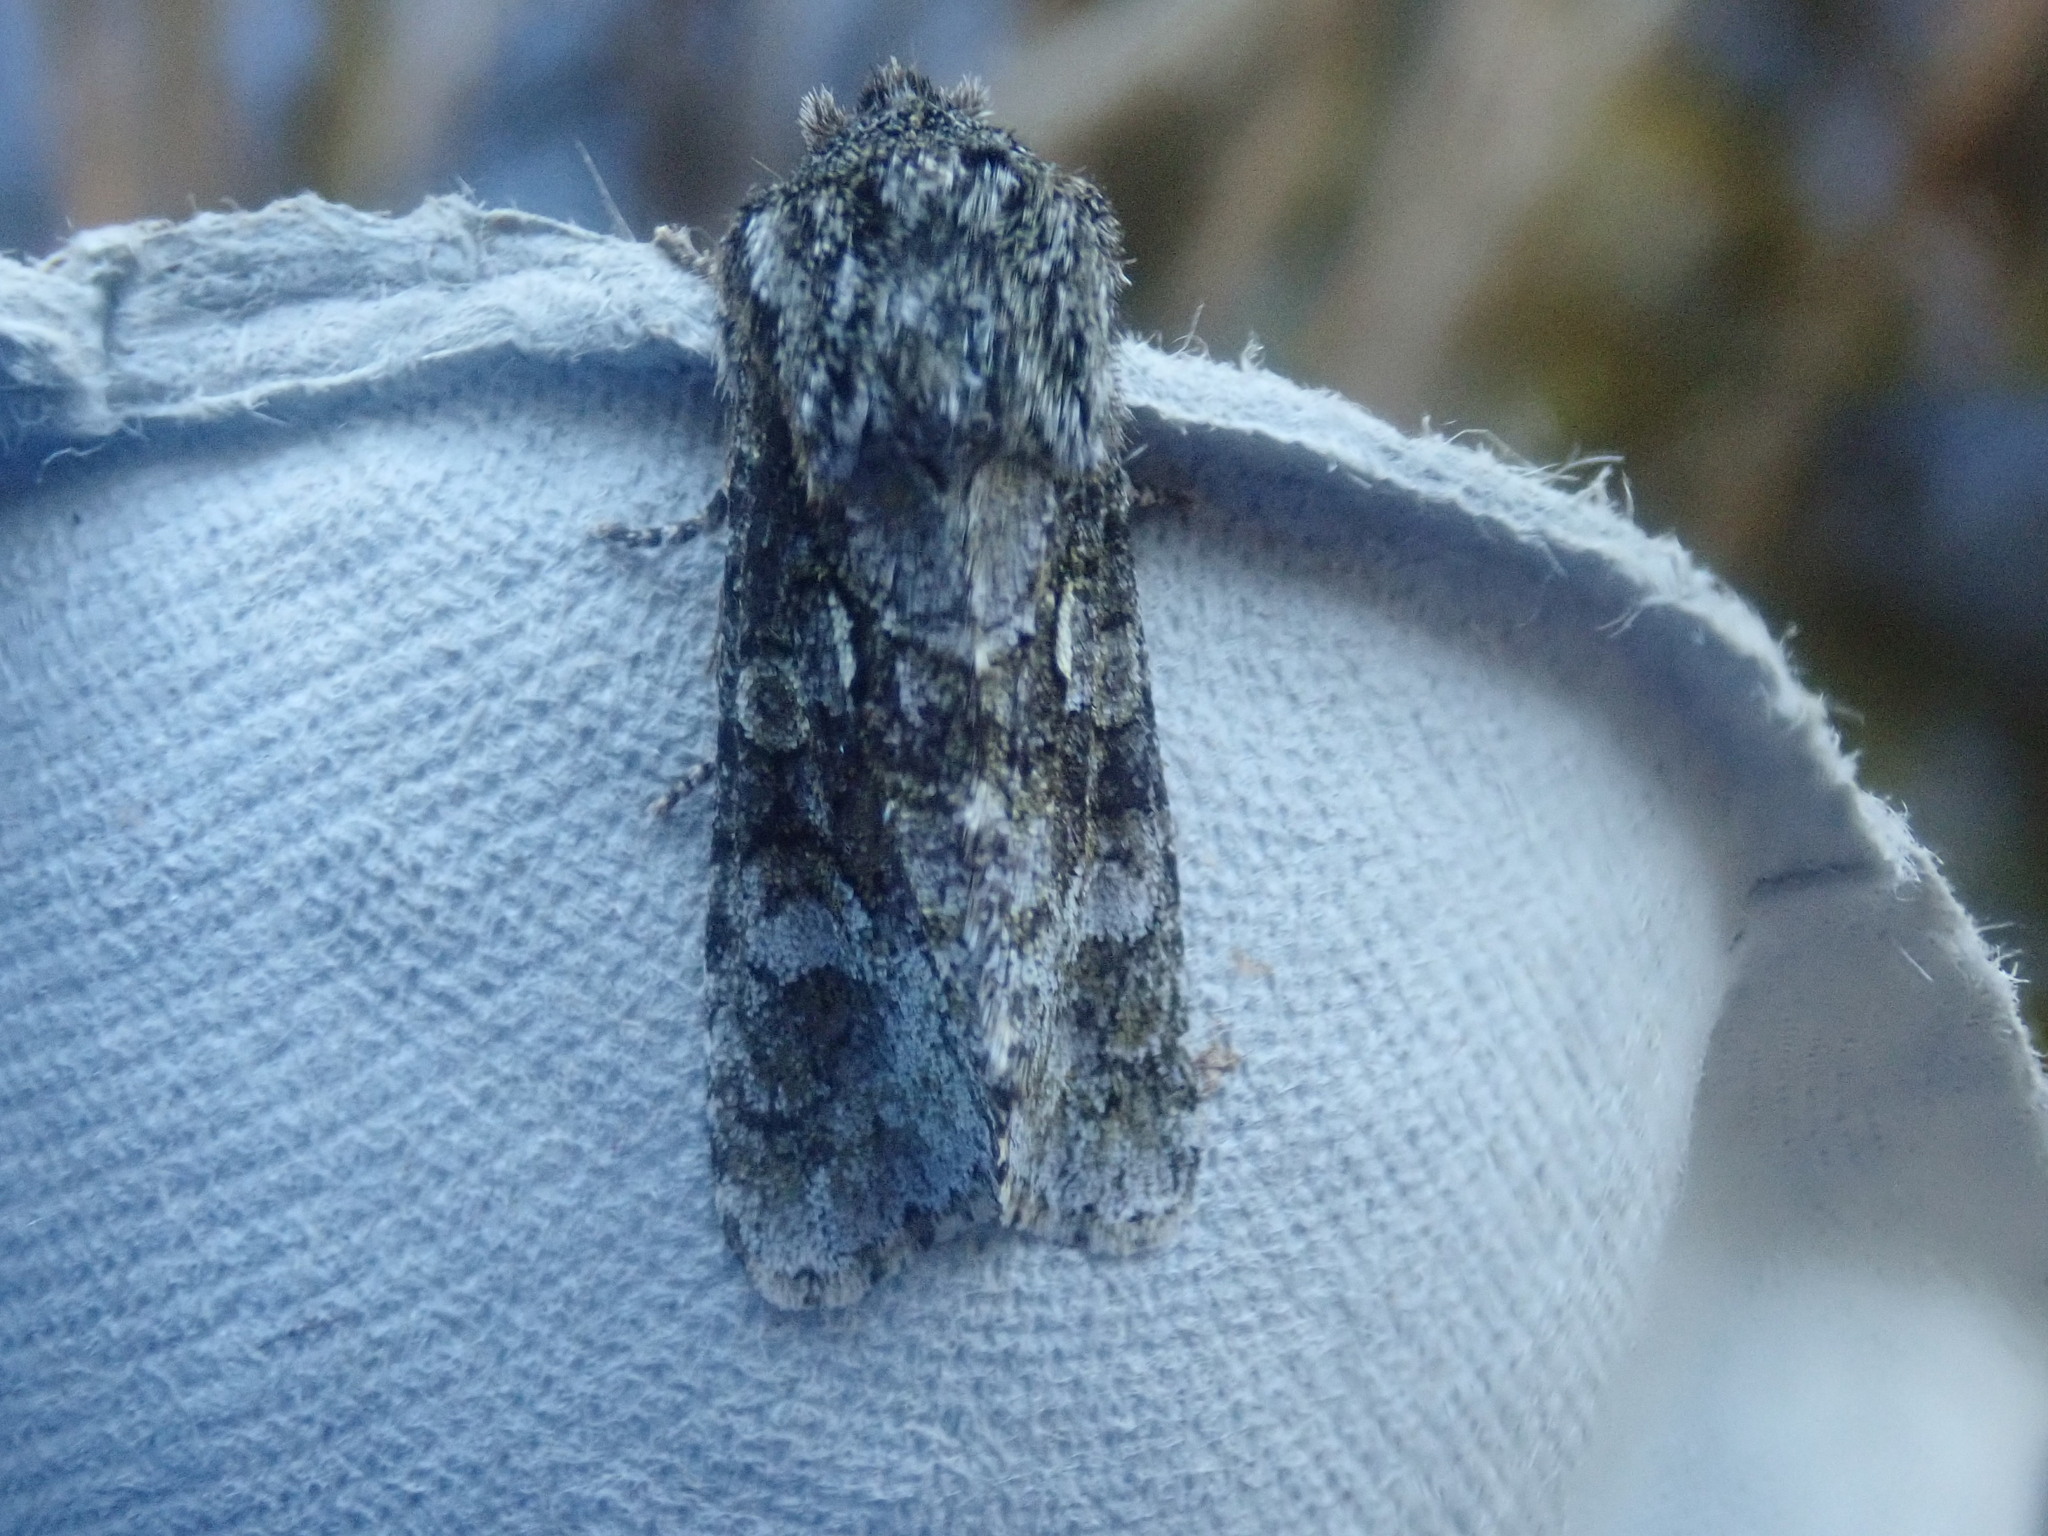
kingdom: Animalia
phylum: Arthropoda
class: Insecta
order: Lepidoptera
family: Noctuidae
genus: Psaphida
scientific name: Psaphida resumens
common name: Figure-eight sallow
